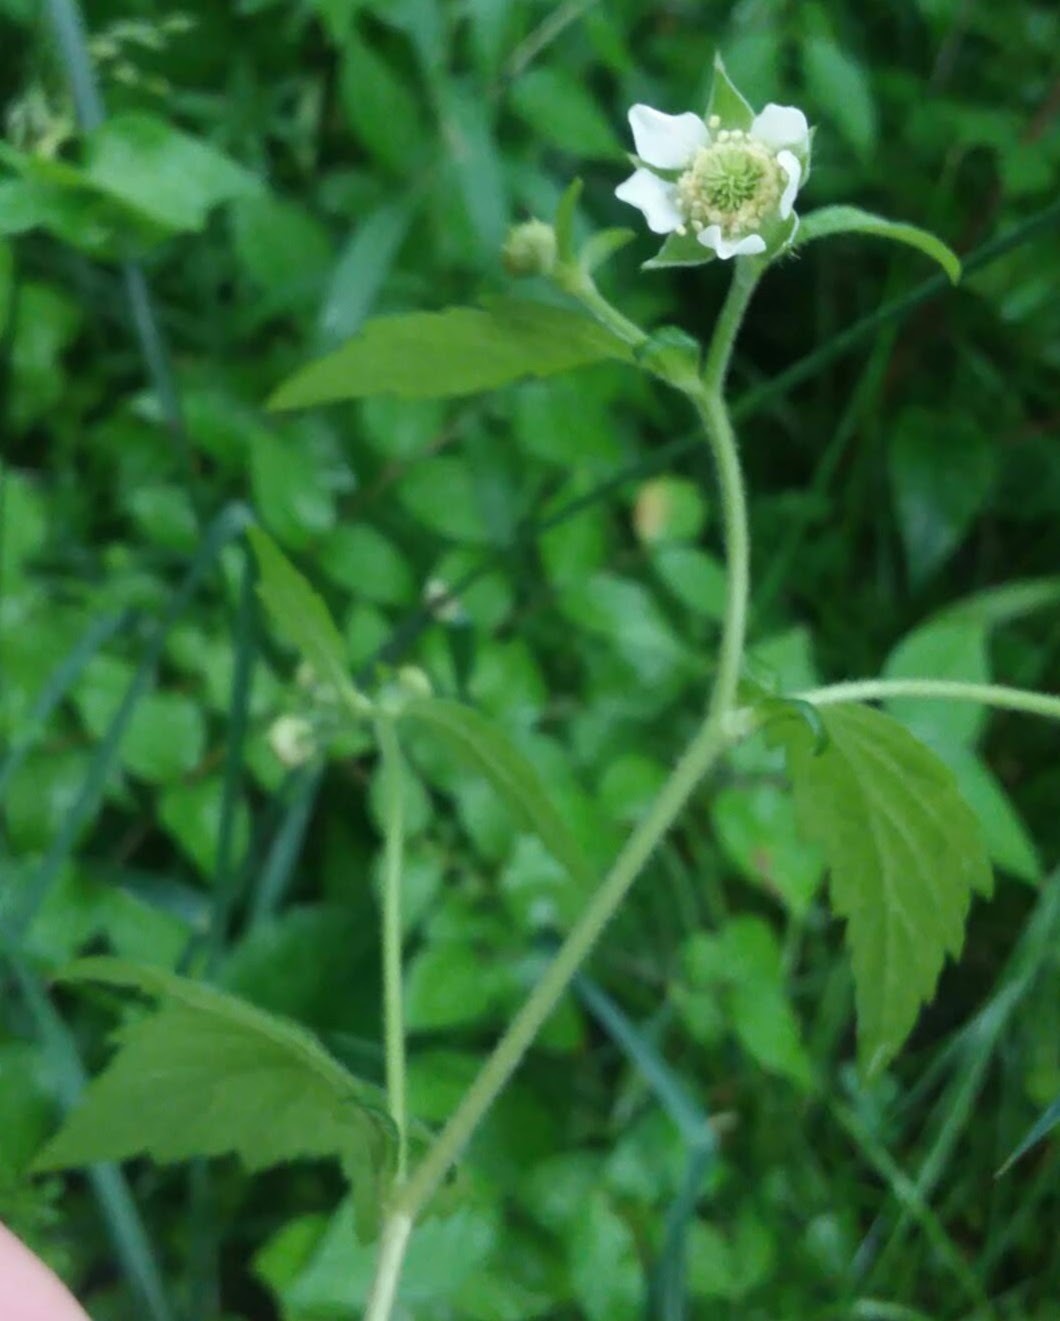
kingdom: Plantae
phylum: Tracheophyta
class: Magnoliopsida
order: Rosales
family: Rosaceae
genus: Geum
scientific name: Geum canadense
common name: White avens
